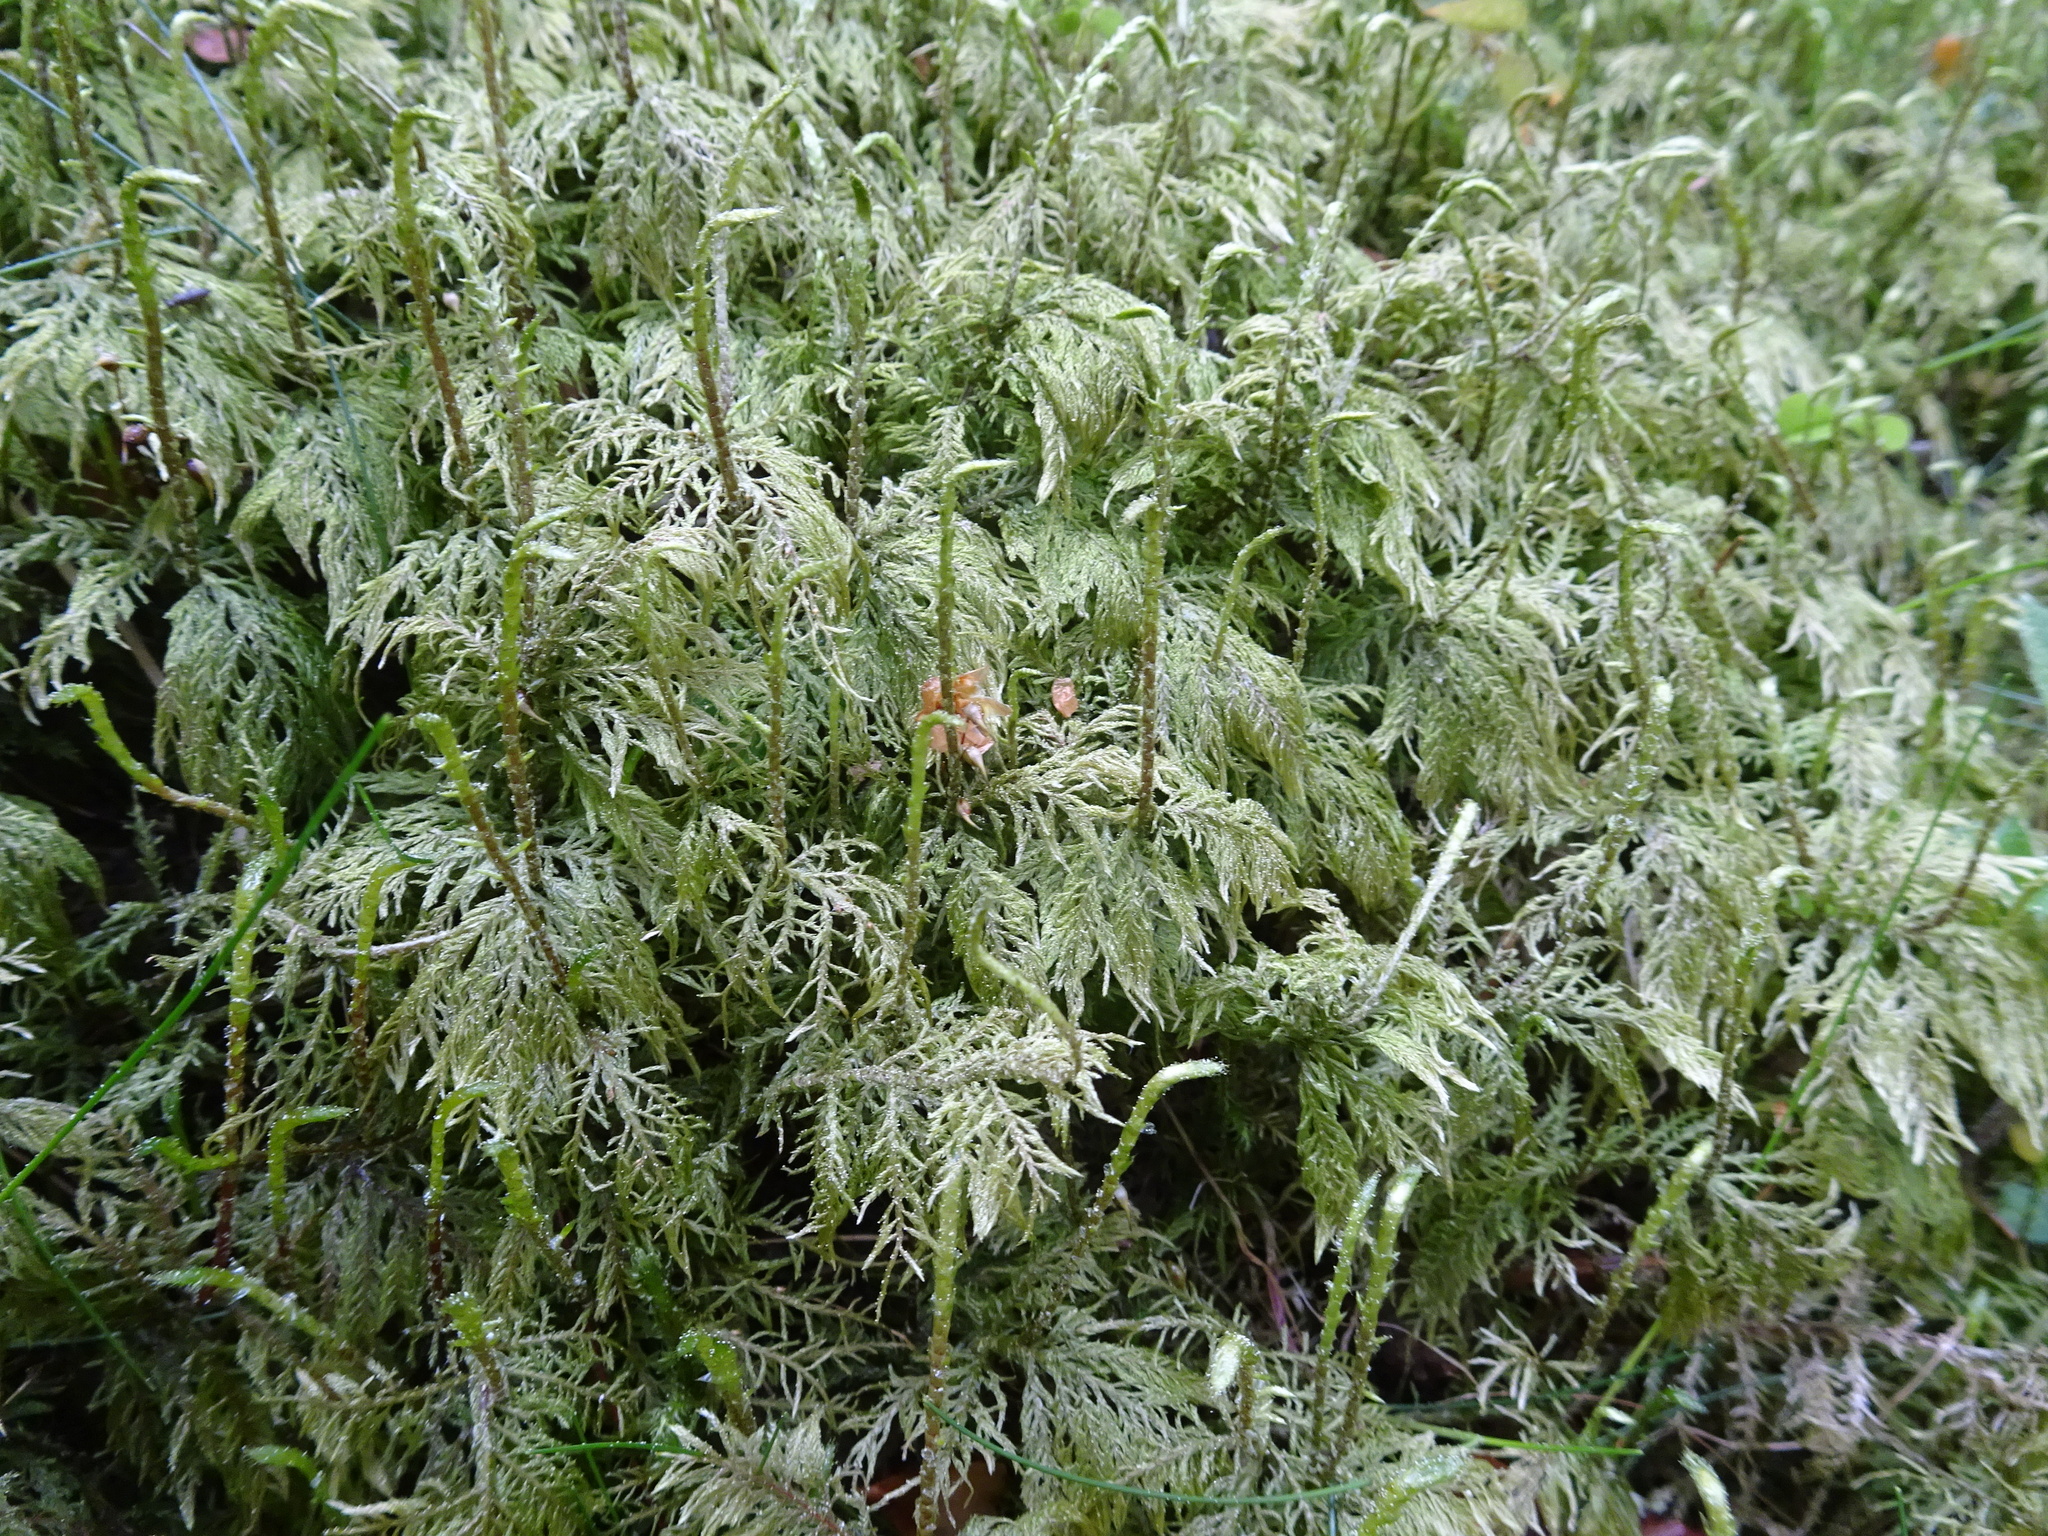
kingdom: Plantae
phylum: Bryophyta
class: Bryopsida
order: Hypnales
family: Hylocomiaceae
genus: Hylocomium
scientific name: Hylocomium splendens
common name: Stairstep moss
